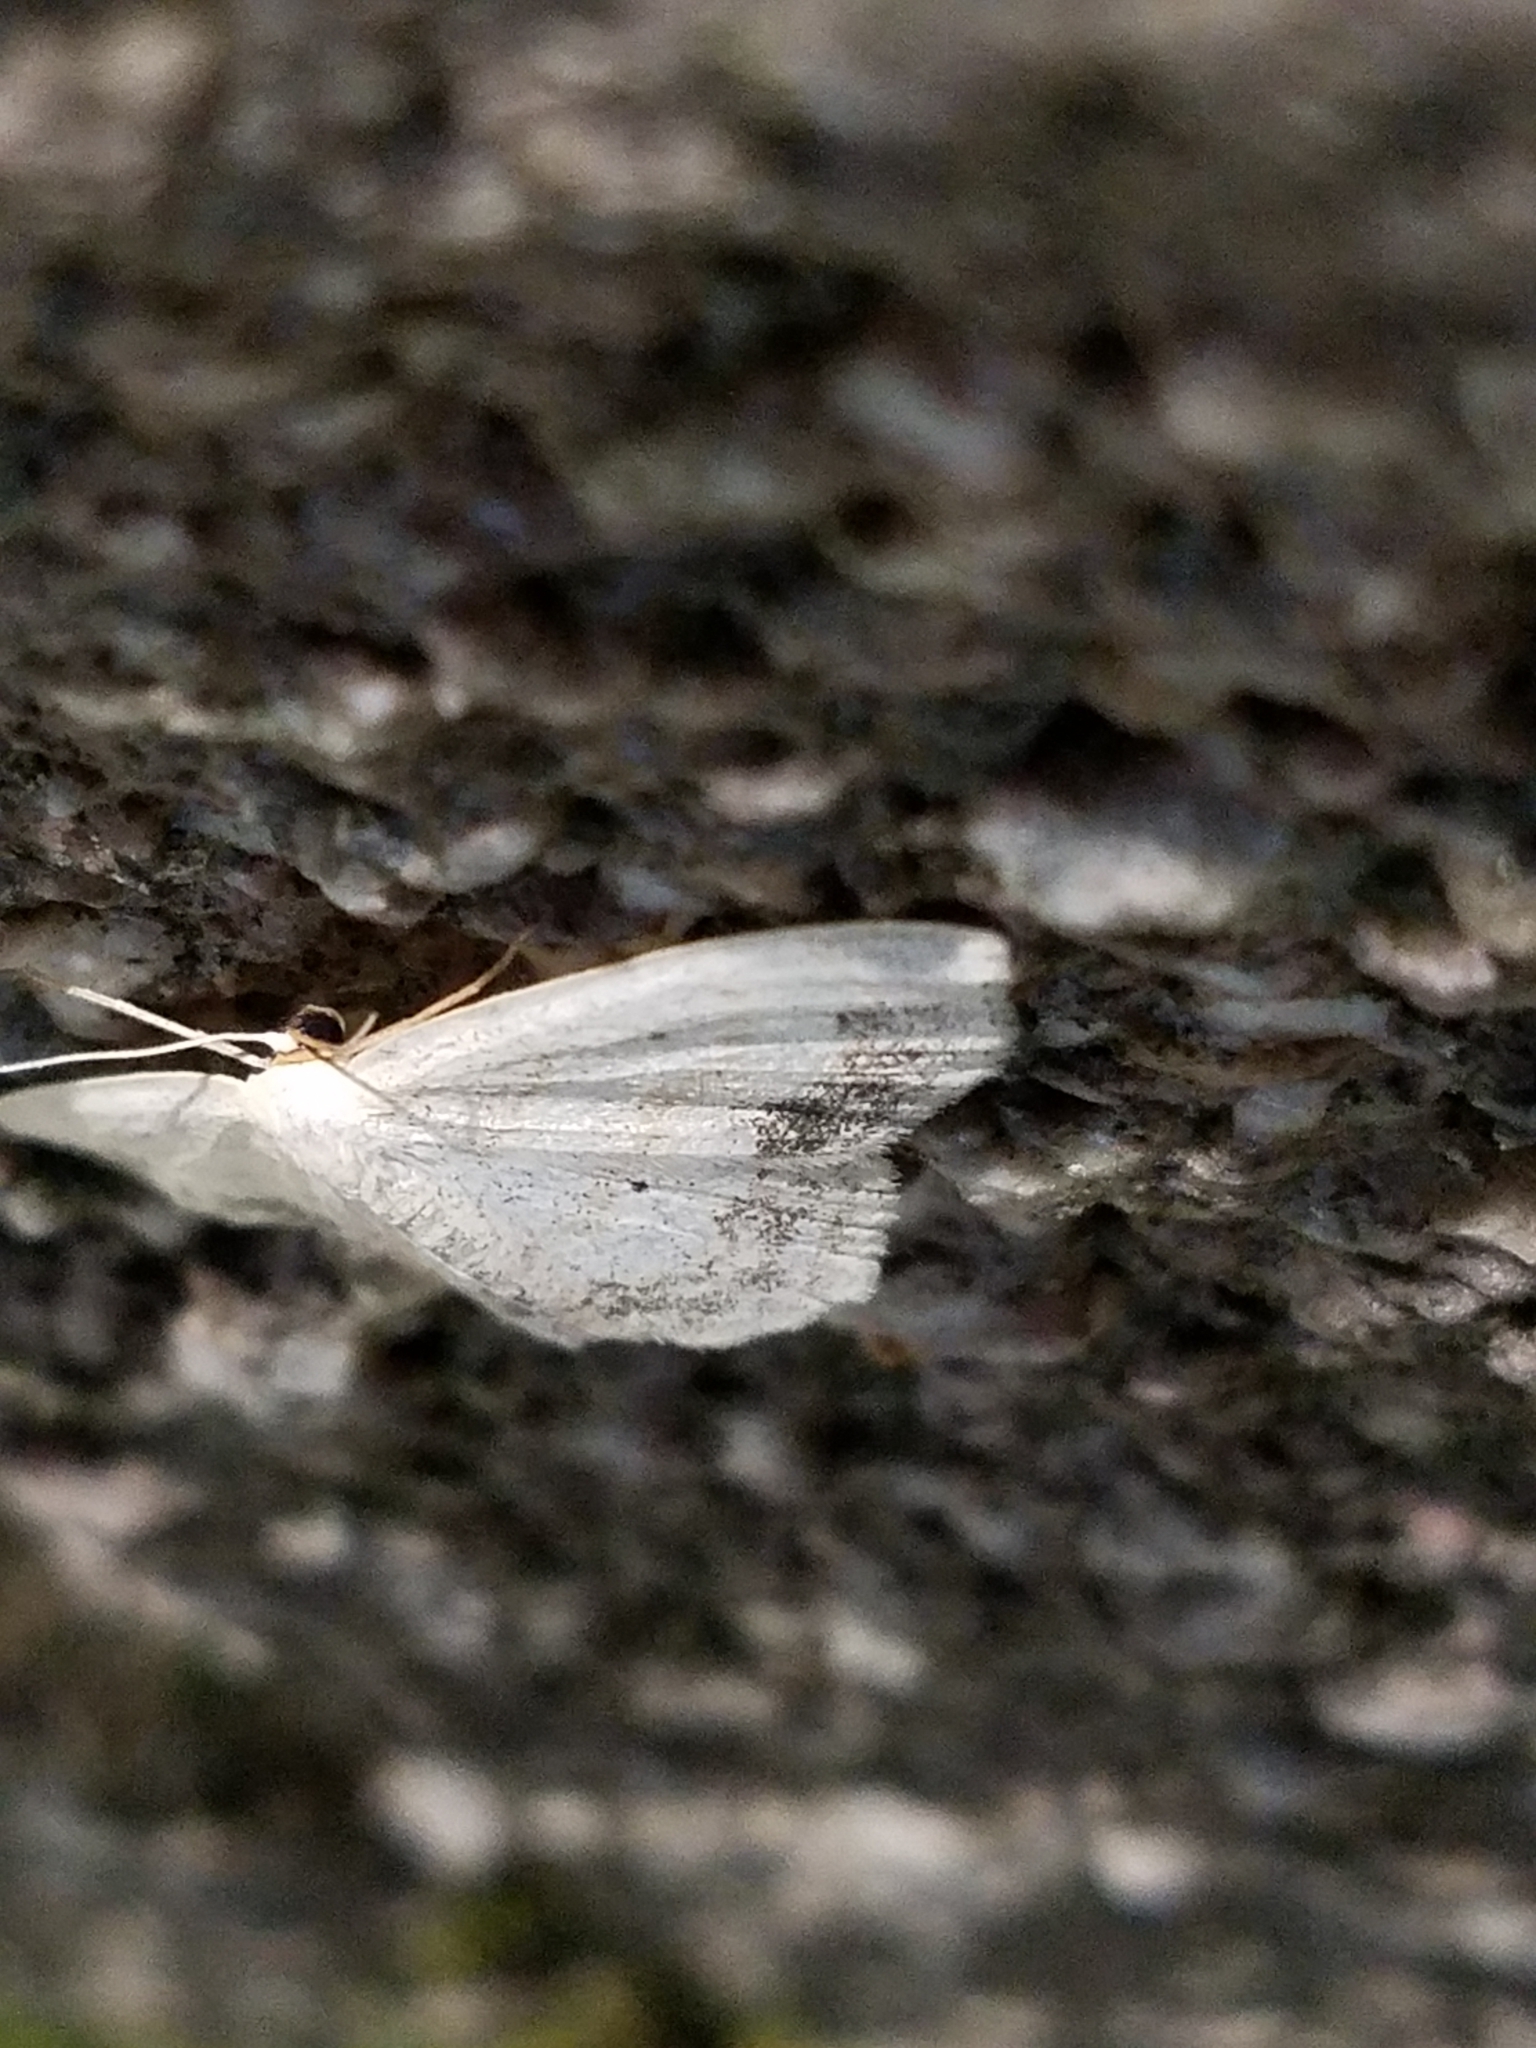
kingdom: Animalia
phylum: Arthropoda
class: Insecta
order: Lepidoptera
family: Geometridae
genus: Scopula
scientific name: Scopula limboundata
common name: Large lace border
